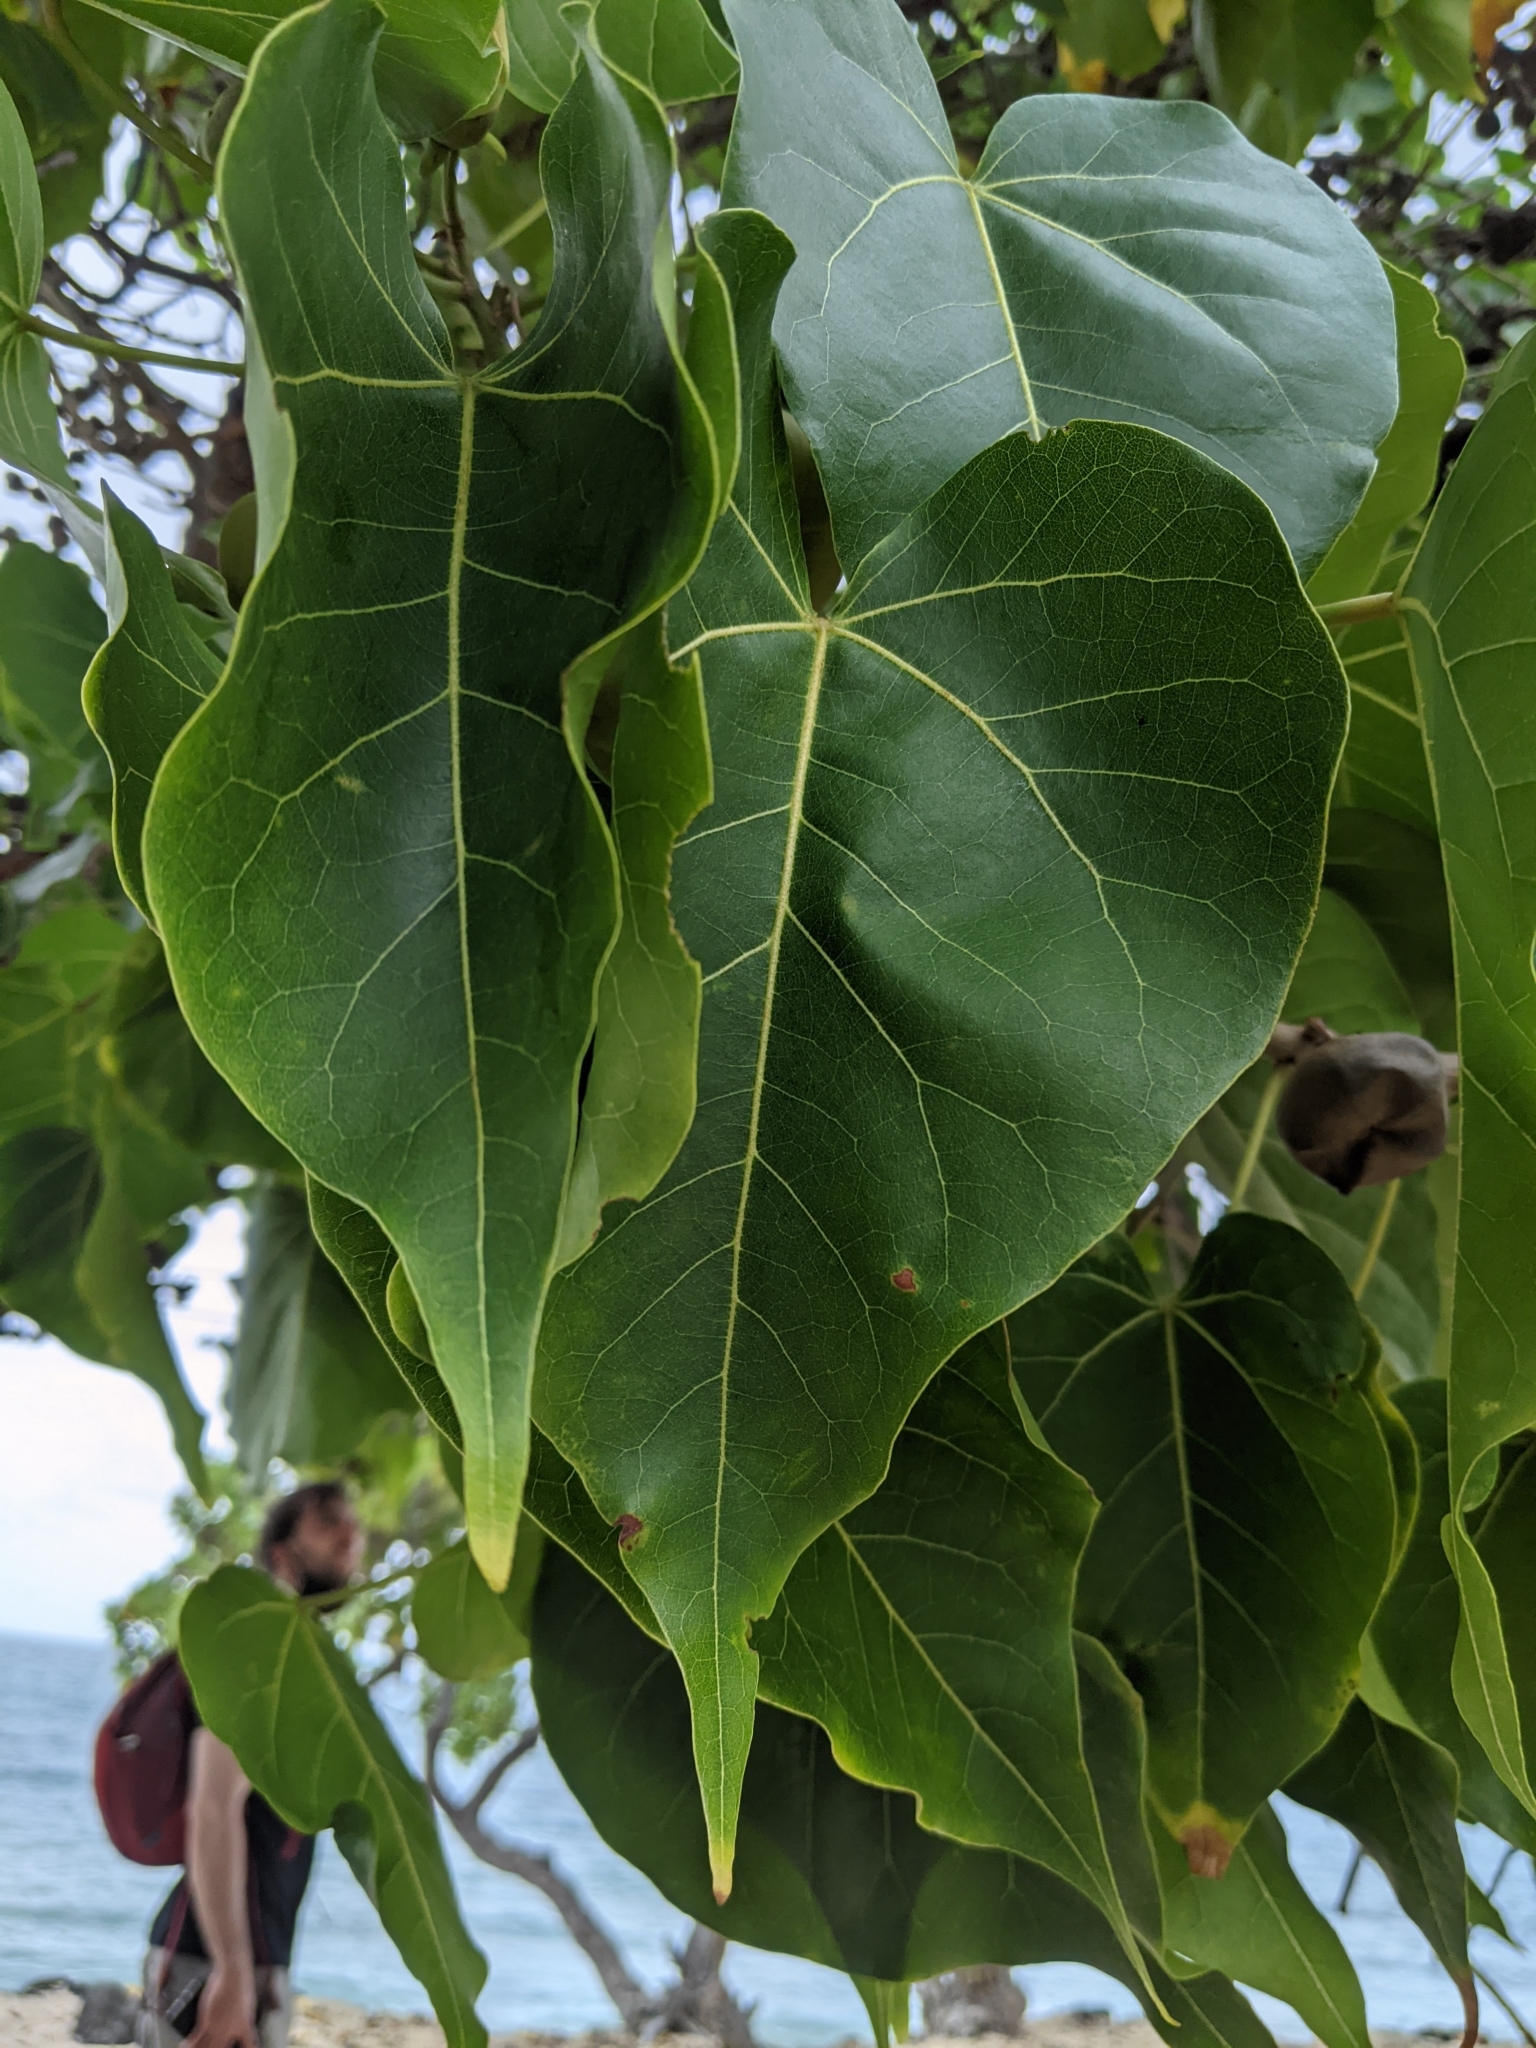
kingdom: Plantae
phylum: Tracheophyta
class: Magnoliopsida
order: Malvales
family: Malvaceae
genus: Thespesia
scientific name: Thespesia populnea
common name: Seaside mahoe
